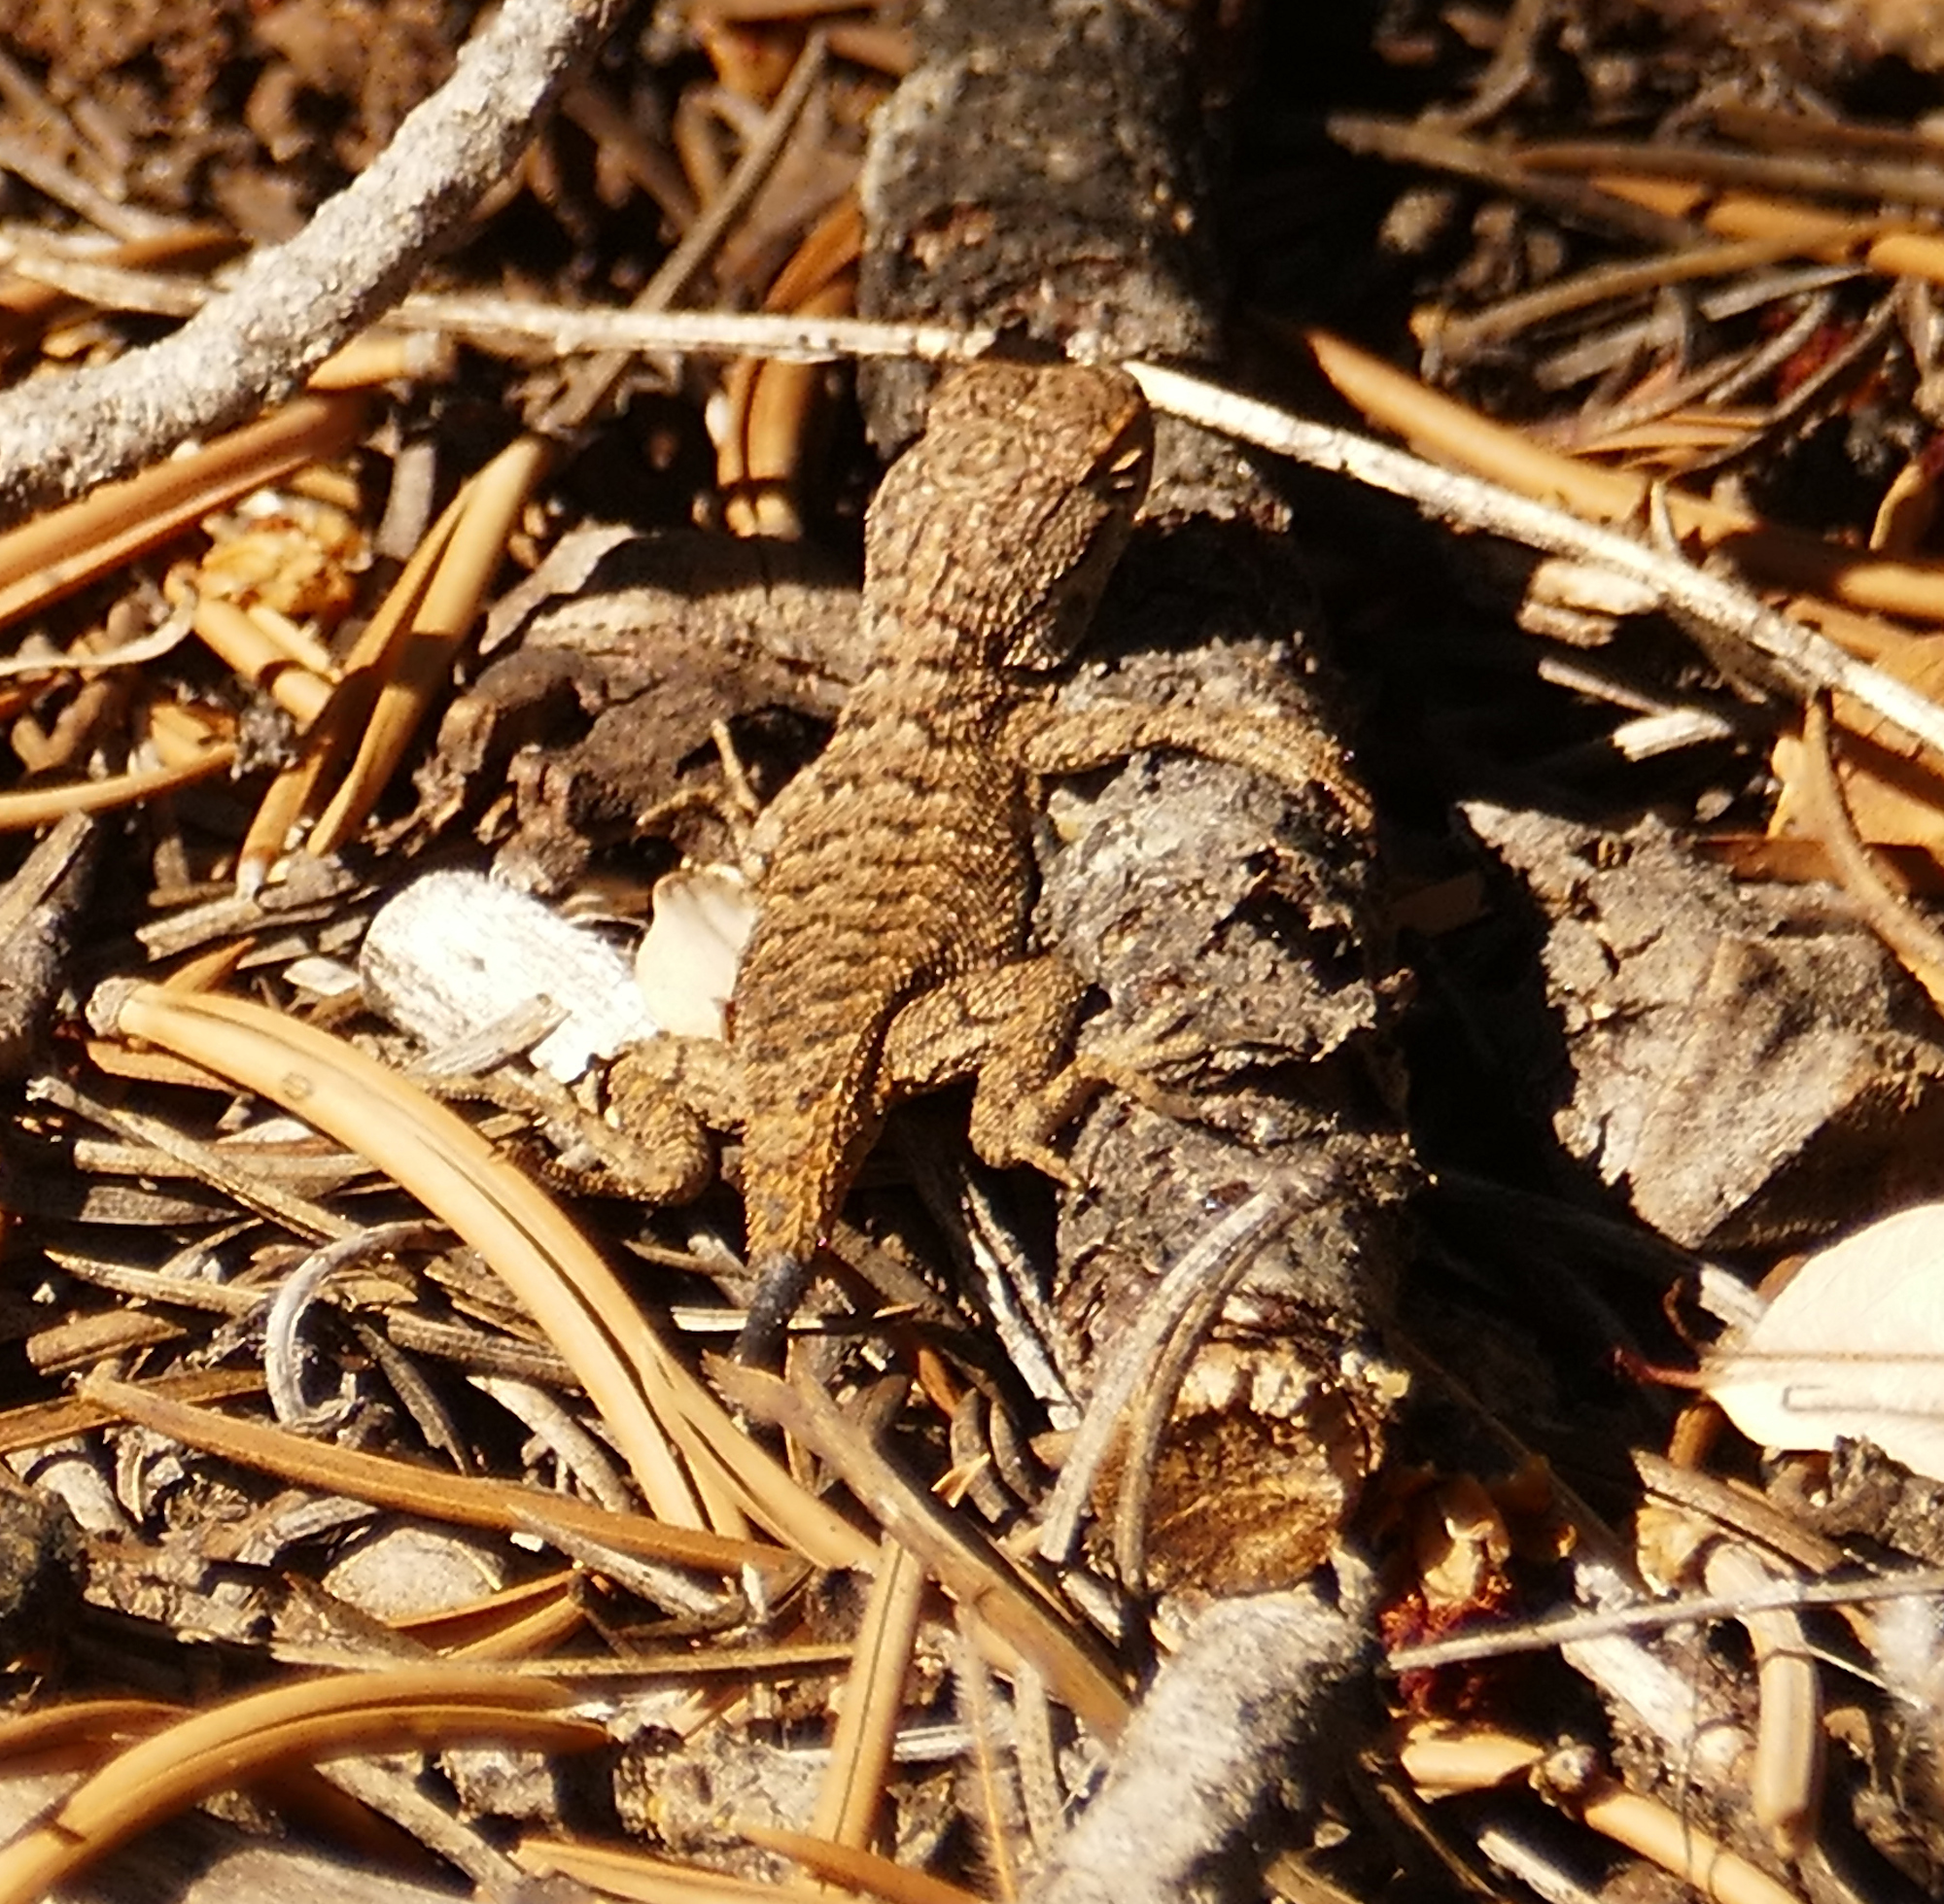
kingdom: Animalia
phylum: Chordata
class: Squamata
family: Phrynosomatidae
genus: Sceloporus
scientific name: Sceloporus tristichus
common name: Plateau fence lizard
